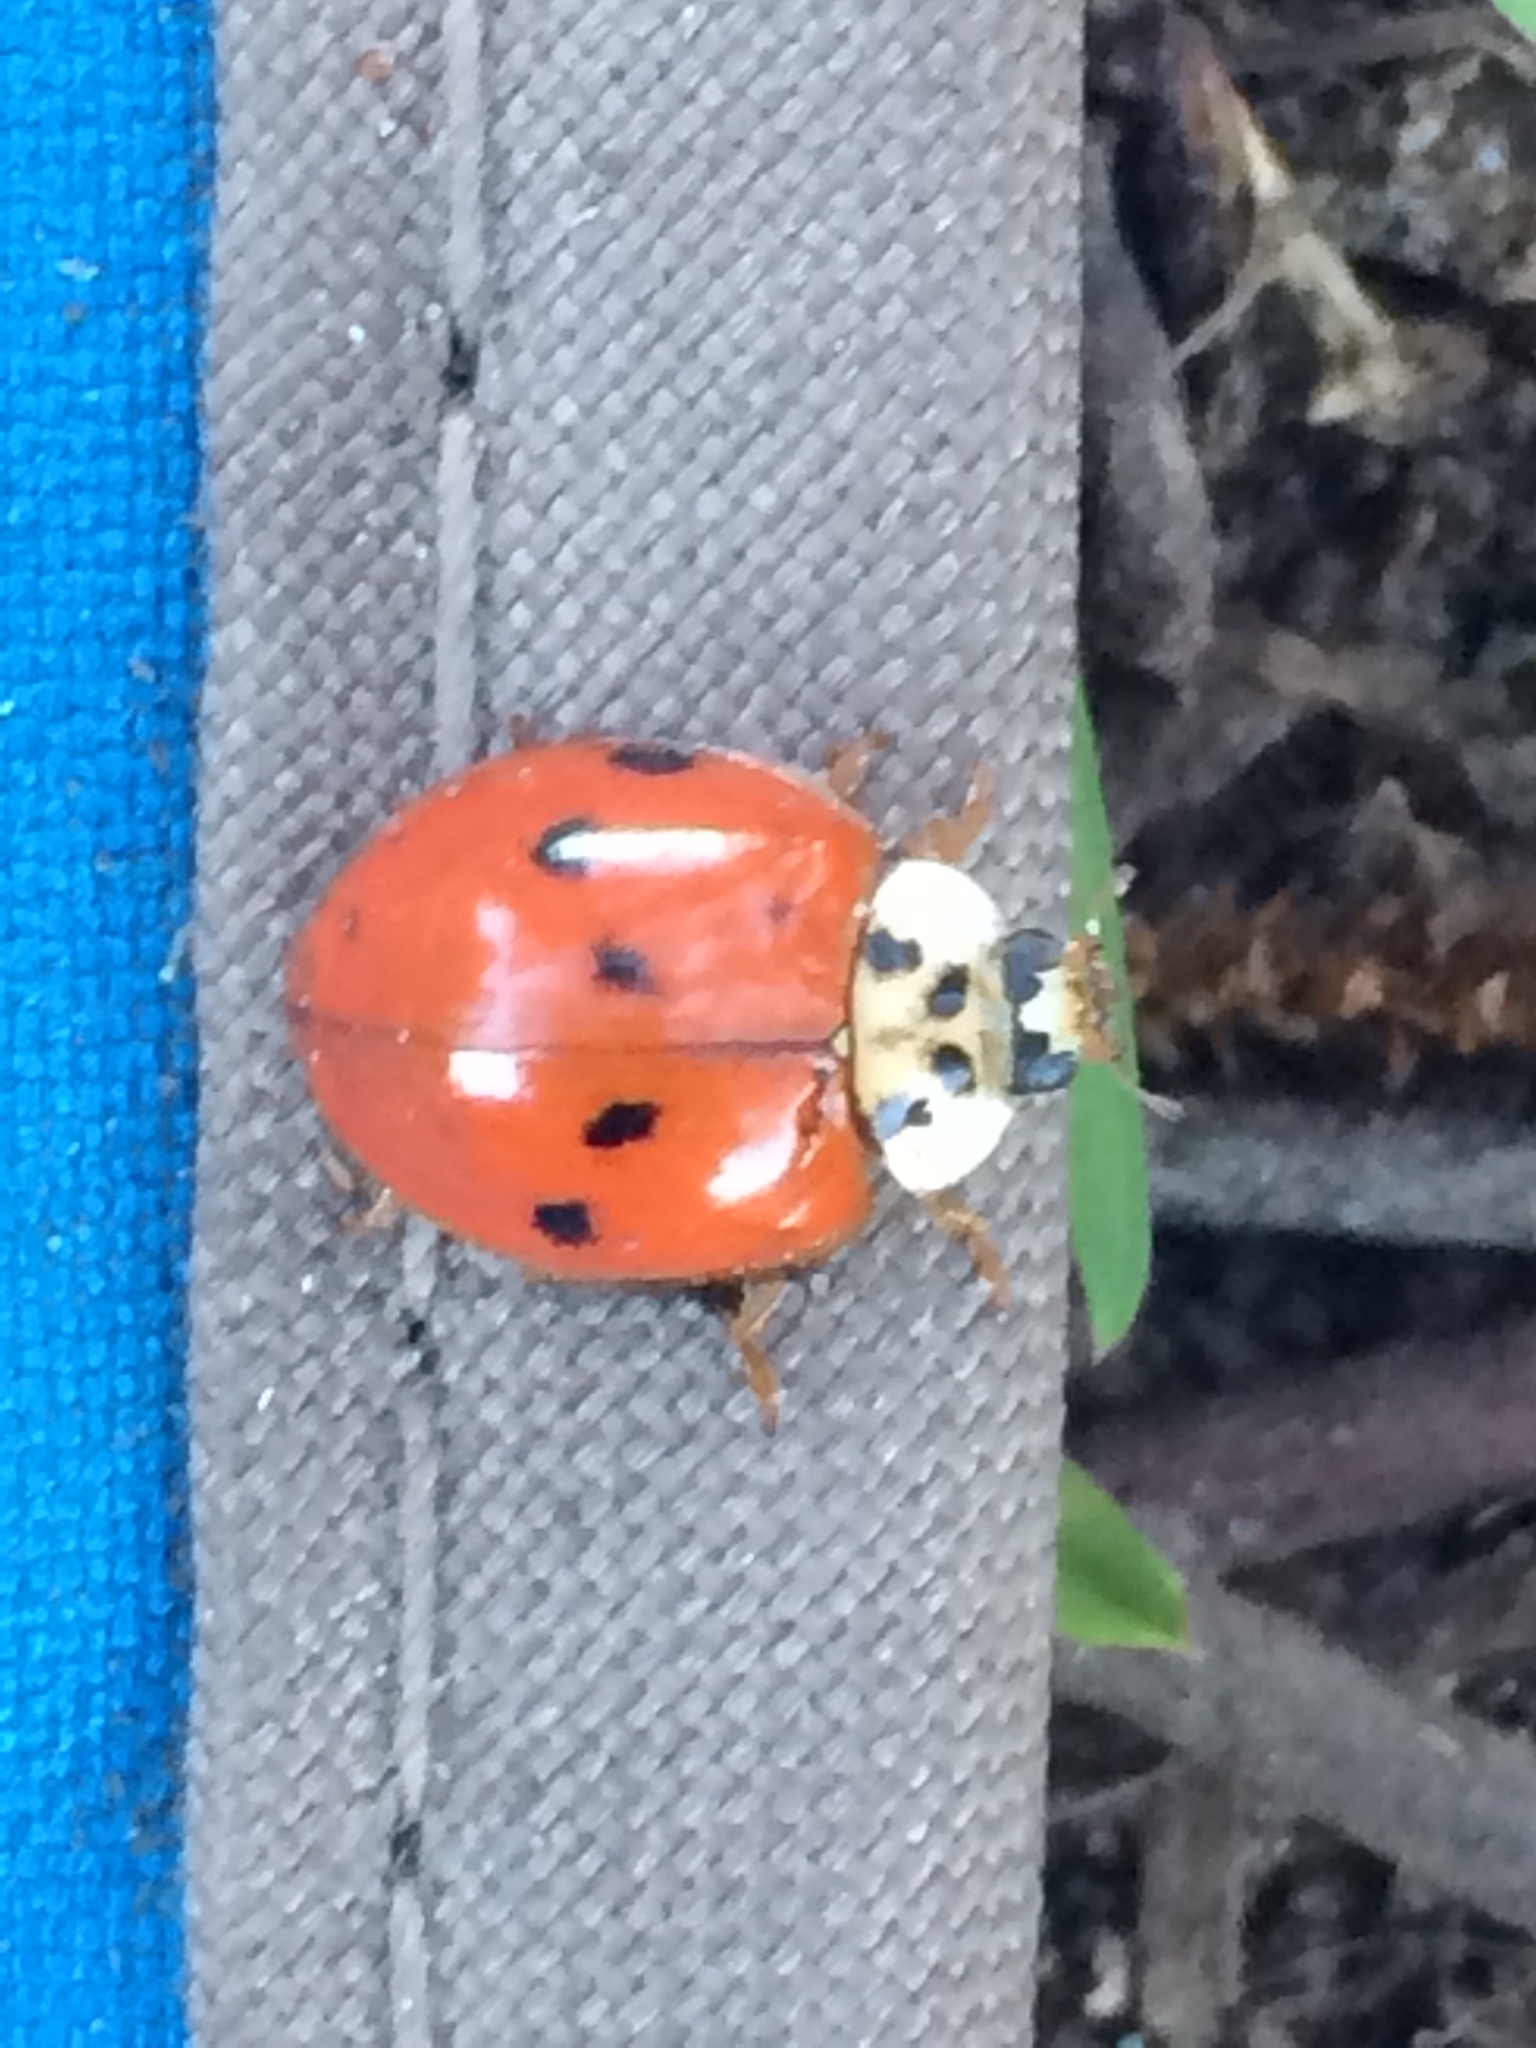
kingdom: Animalia
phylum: Arthropoda
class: Insecta
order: Coleoptera
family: Coccinellidae
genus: Harmonia
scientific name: Harmonia axyridis
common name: Harlequin ladybird
